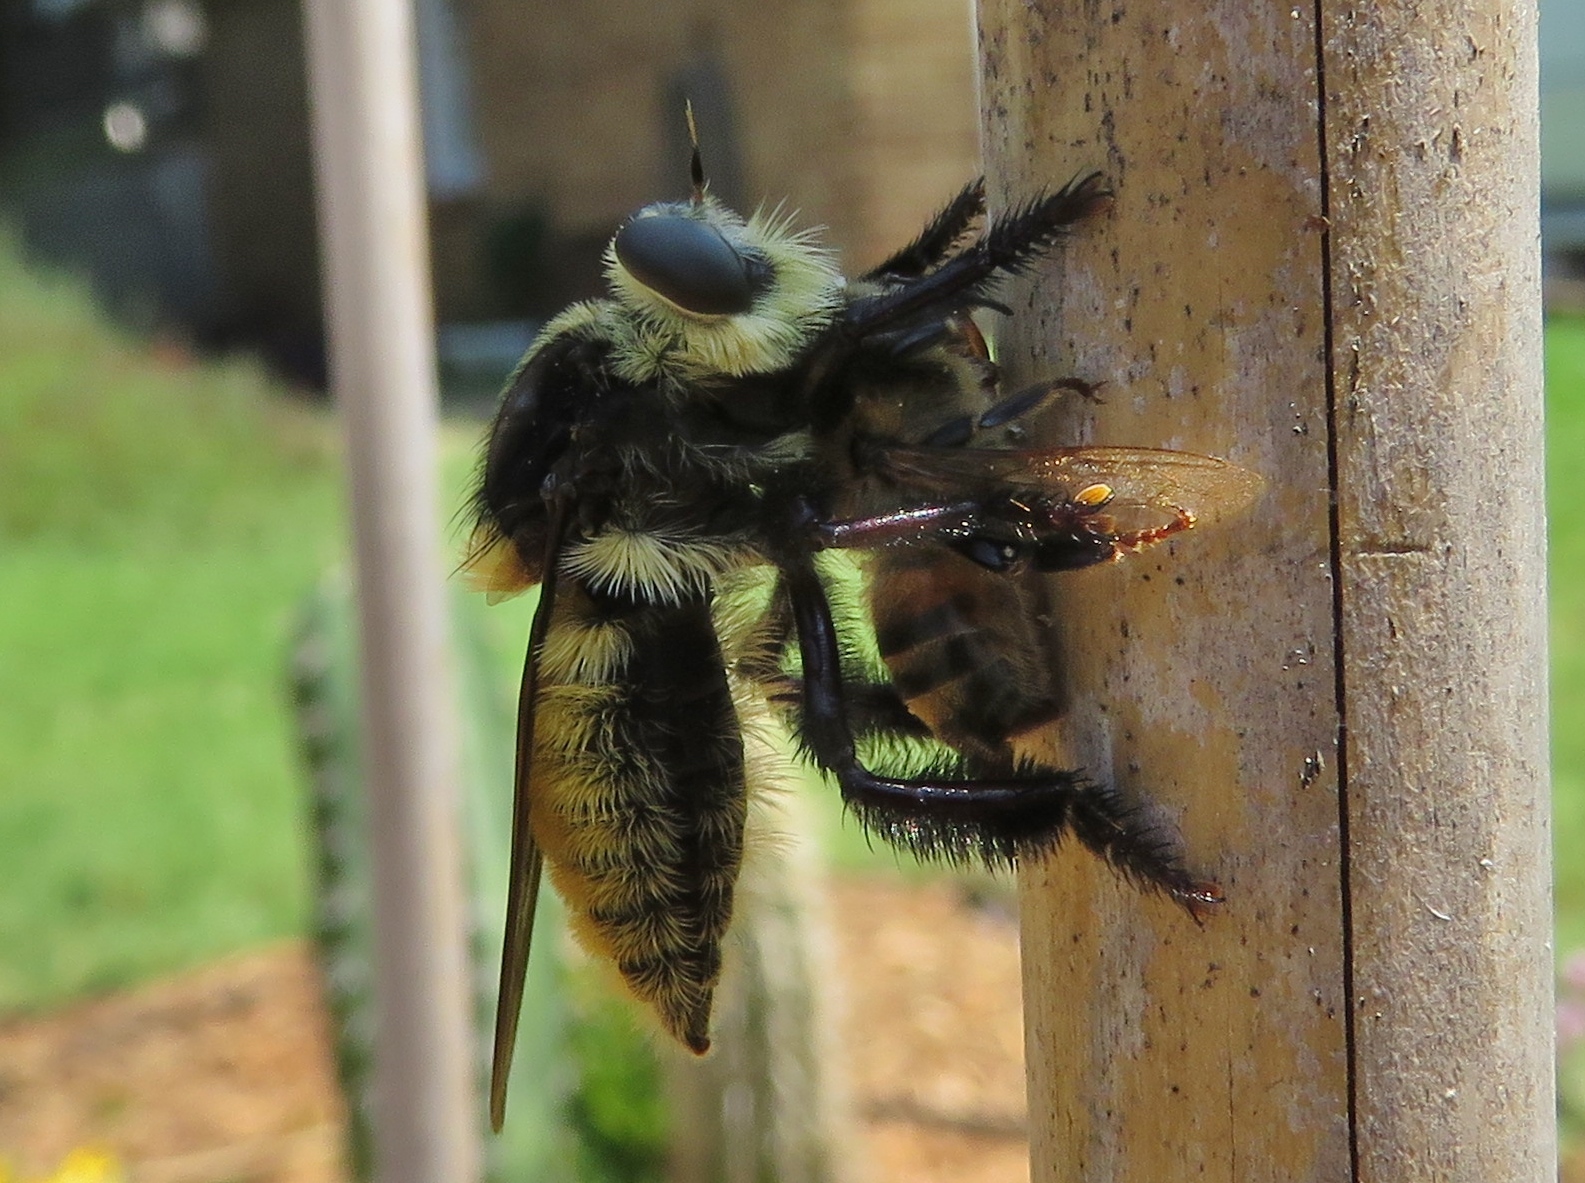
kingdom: Animalia
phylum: Arthropoda
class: Insecta
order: Diptera
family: Asilidae
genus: Mallophora
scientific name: Mallophora fautrix
